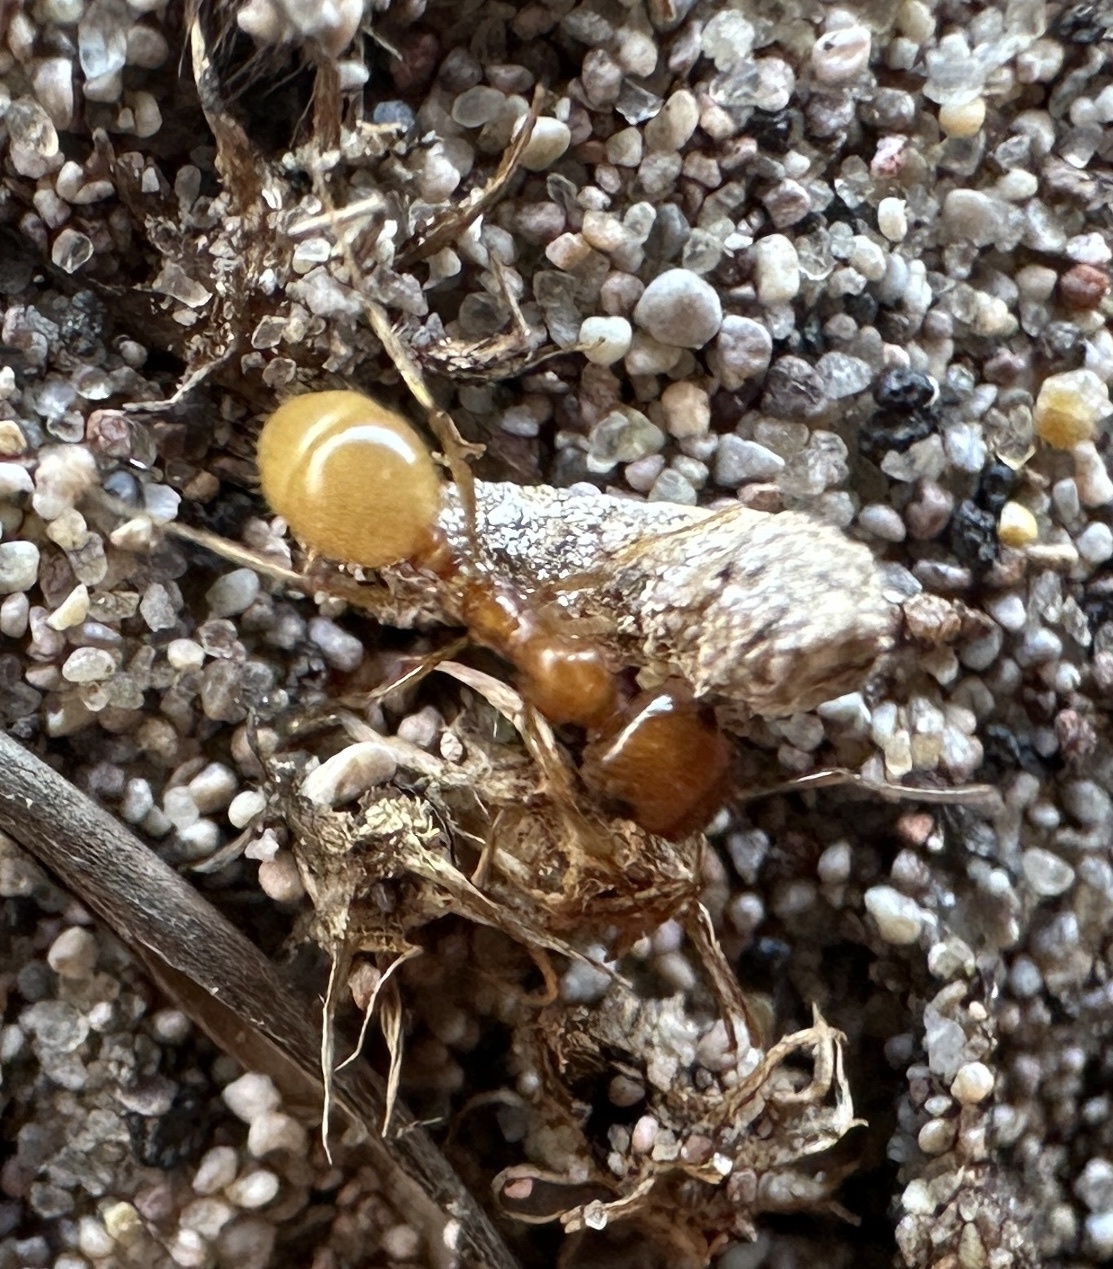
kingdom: Animalia
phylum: Arthropoda
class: Insecta
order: Hymenoptera
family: Formicidae
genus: Messor
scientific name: Messor lariversi
